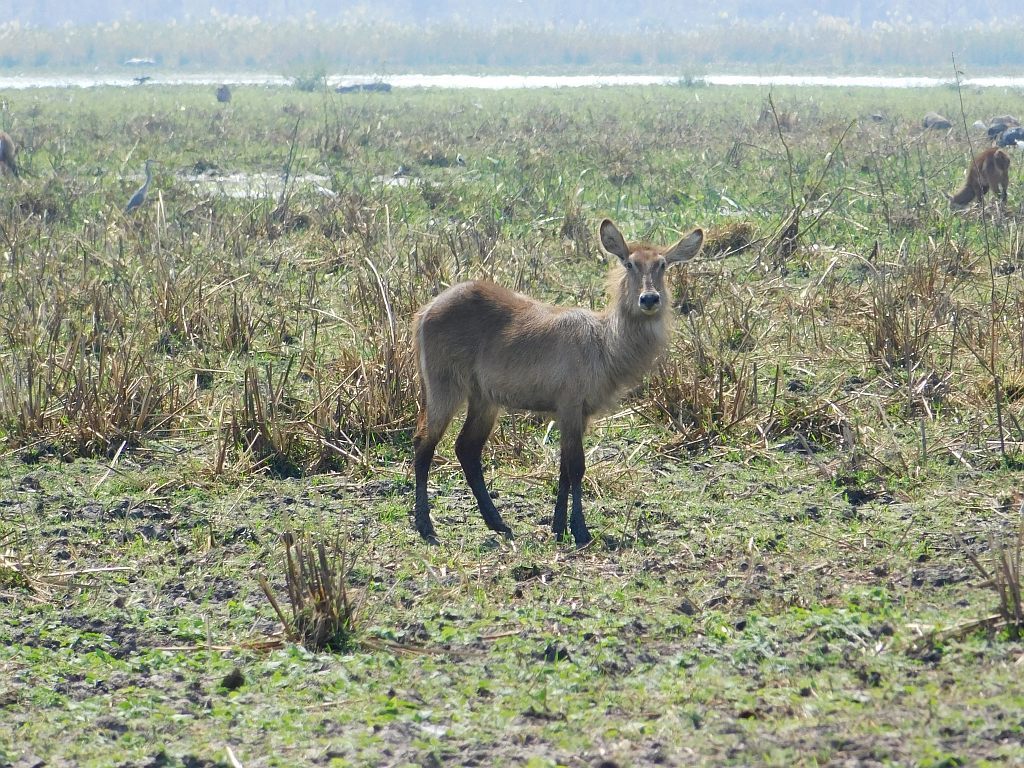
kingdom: Animalia
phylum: Chordata
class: Mammalia
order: Artiodactyla
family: Bovidae
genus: Kobus
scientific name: Kobus ellipsiprymnus
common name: Waterbuck
